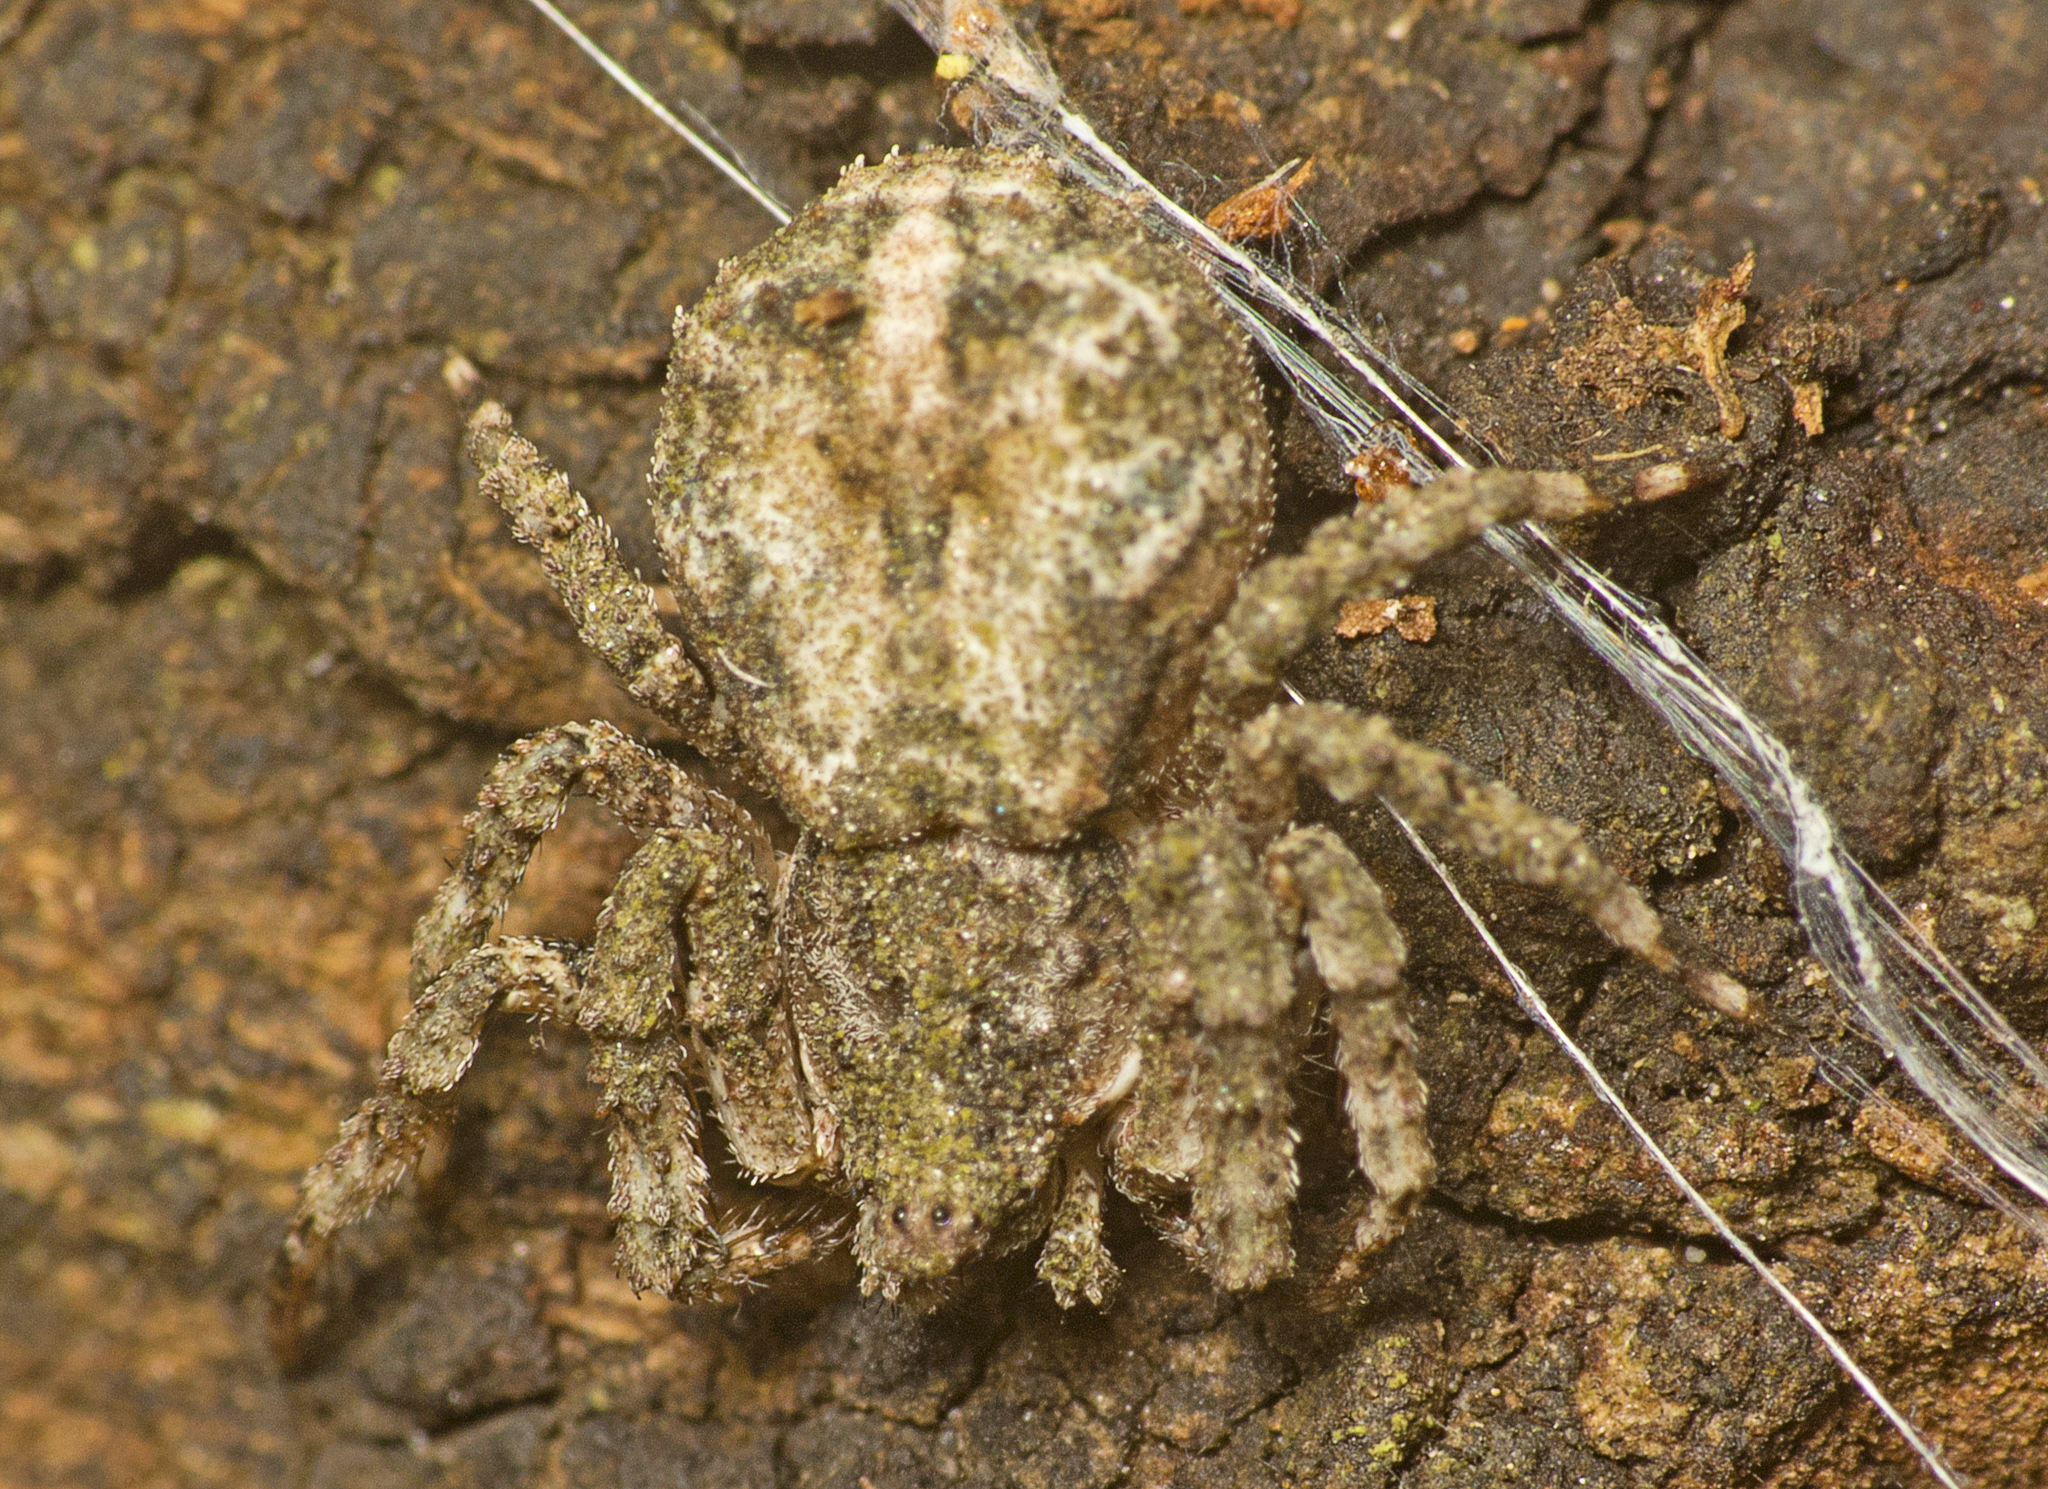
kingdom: Animalia
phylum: Arthropoda
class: Arachnida
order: Araneae
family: Thomisidae
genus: Stephanopis
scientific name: Stephanopis altifrons
